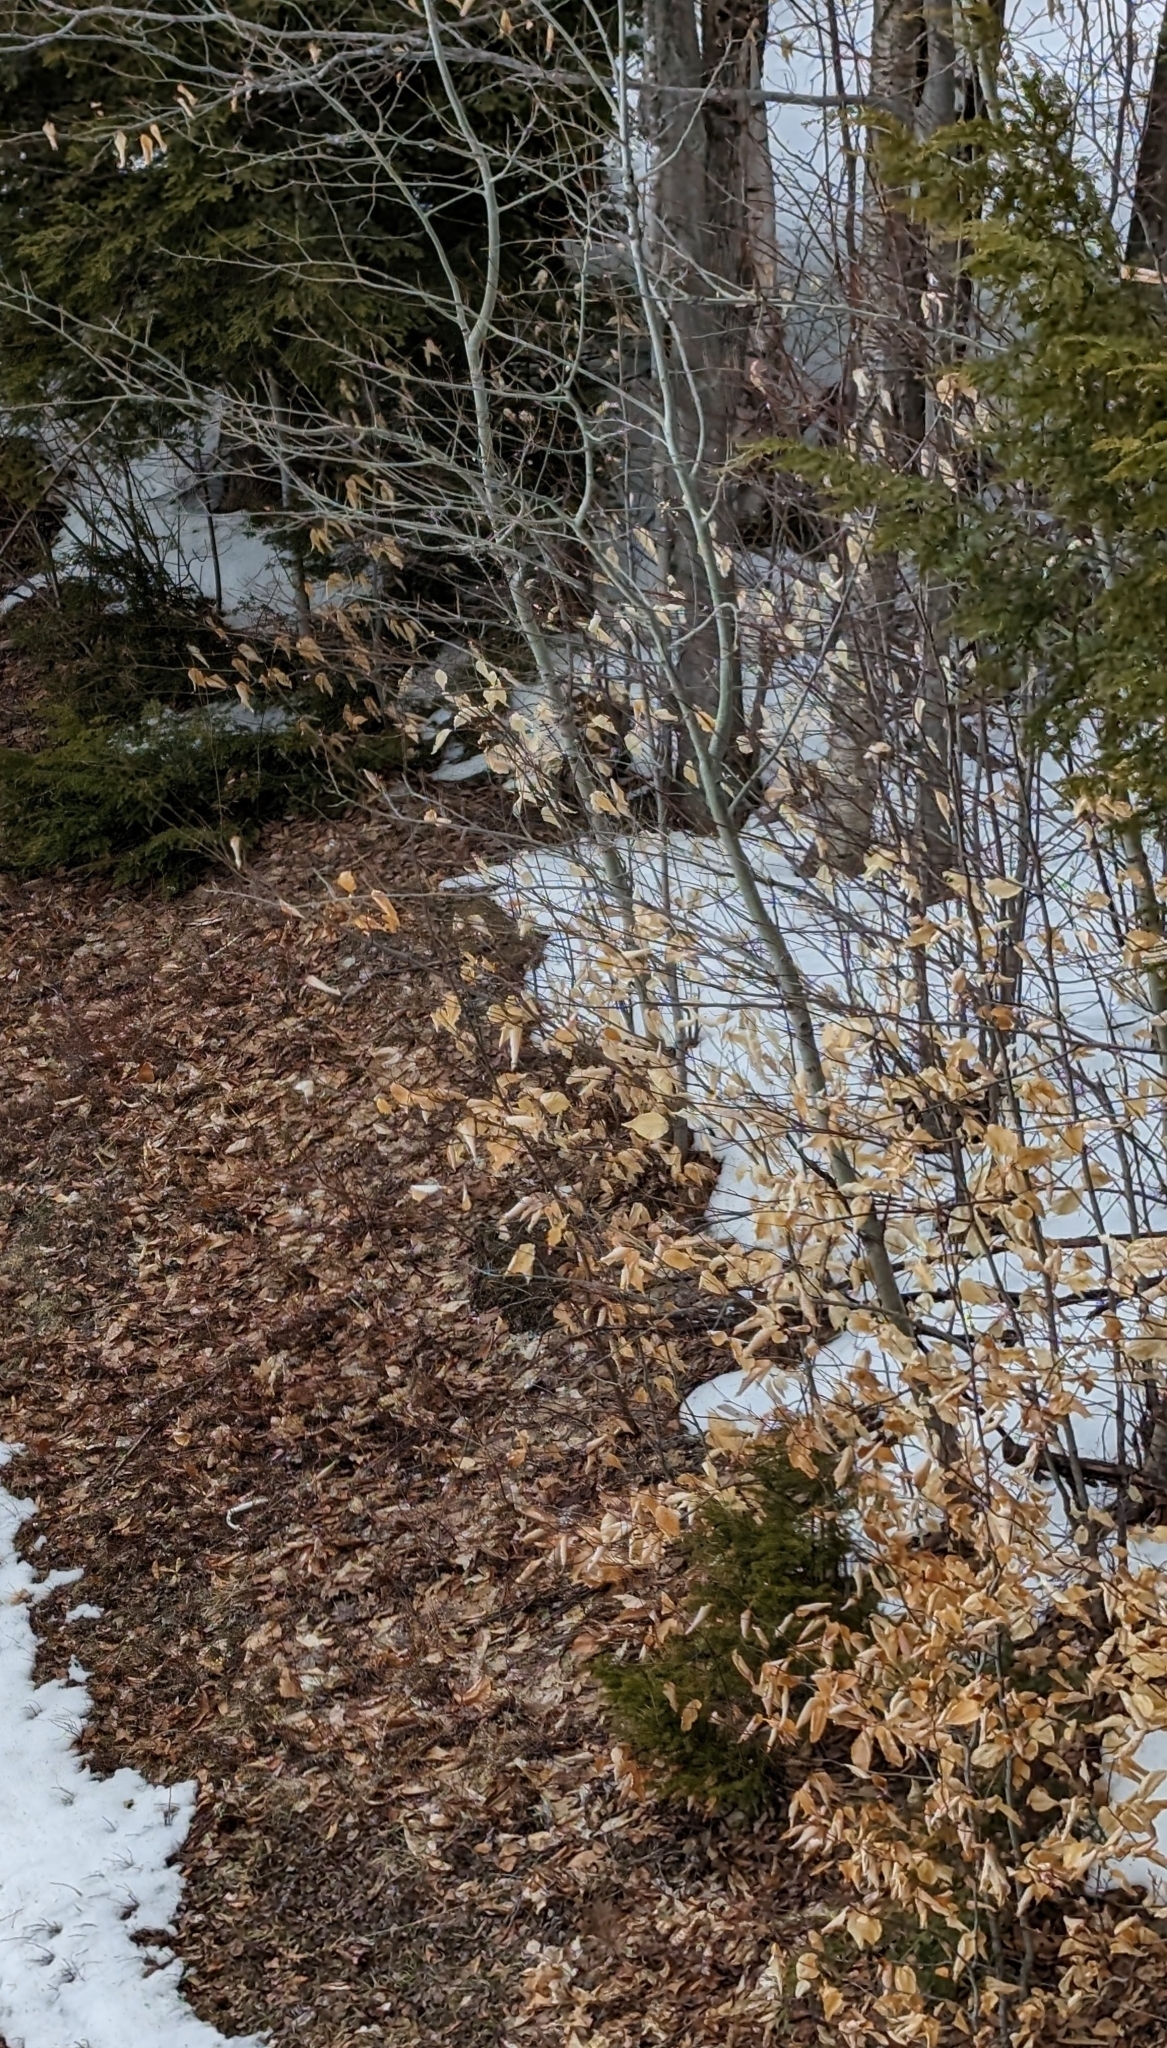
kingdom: Plantae
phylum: Tracheophyta
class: Magnoliopsida
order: Fagales
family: Fagaceae
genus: Fagus
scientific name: Fagus grandifolia
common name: American beech
